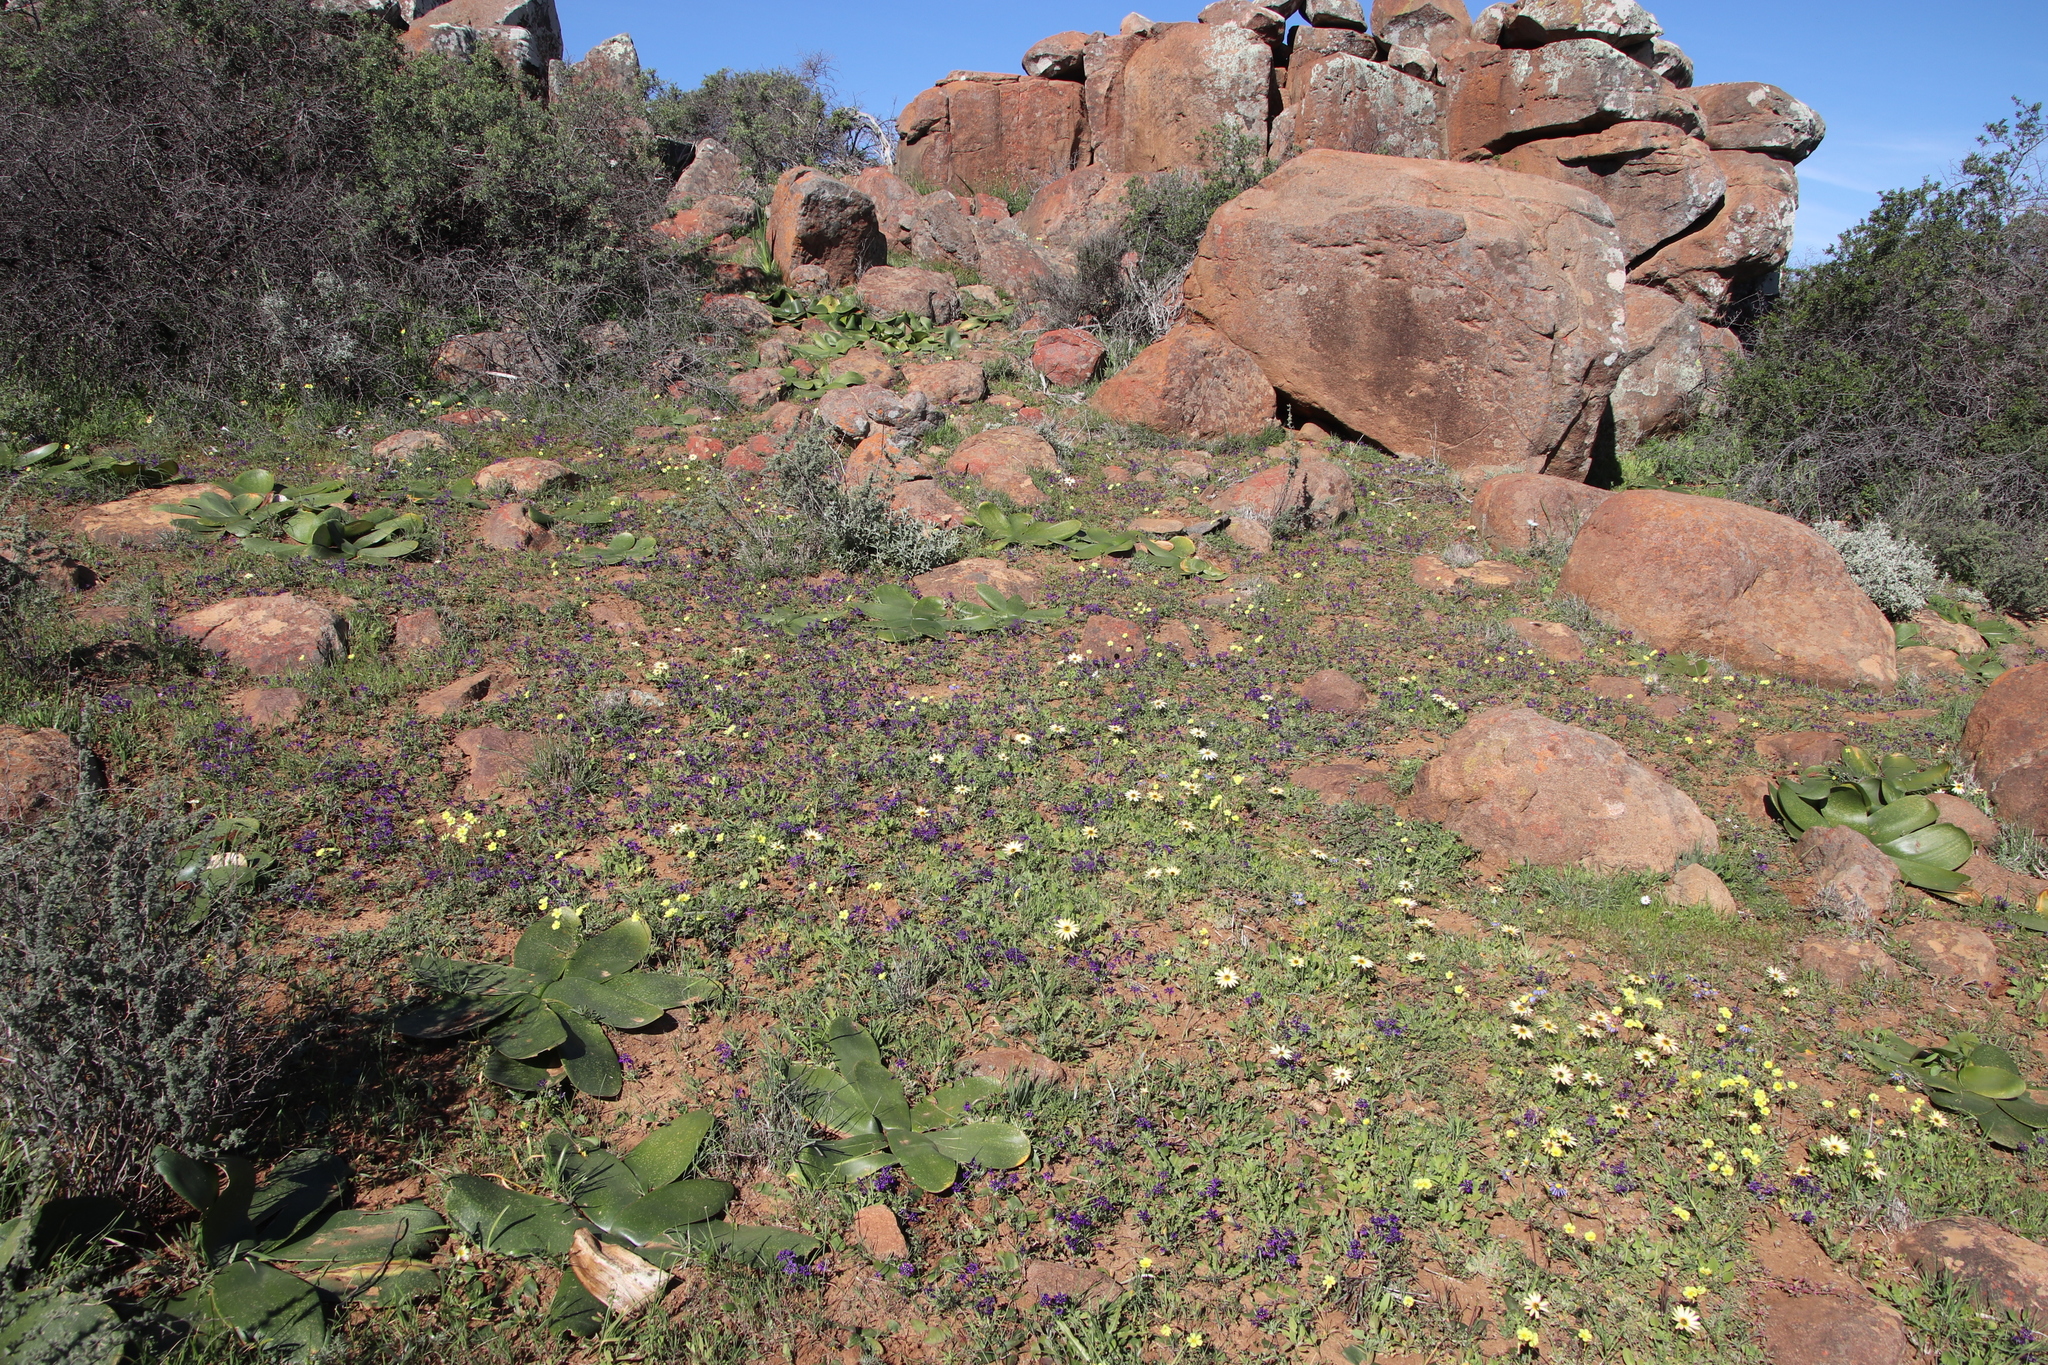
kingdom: Plantae
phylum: Tracheophyta
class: Liliopsida
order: Asparagales
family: Iridaceae
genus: Lapeirousia
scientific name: Lapeirousia oreogena
